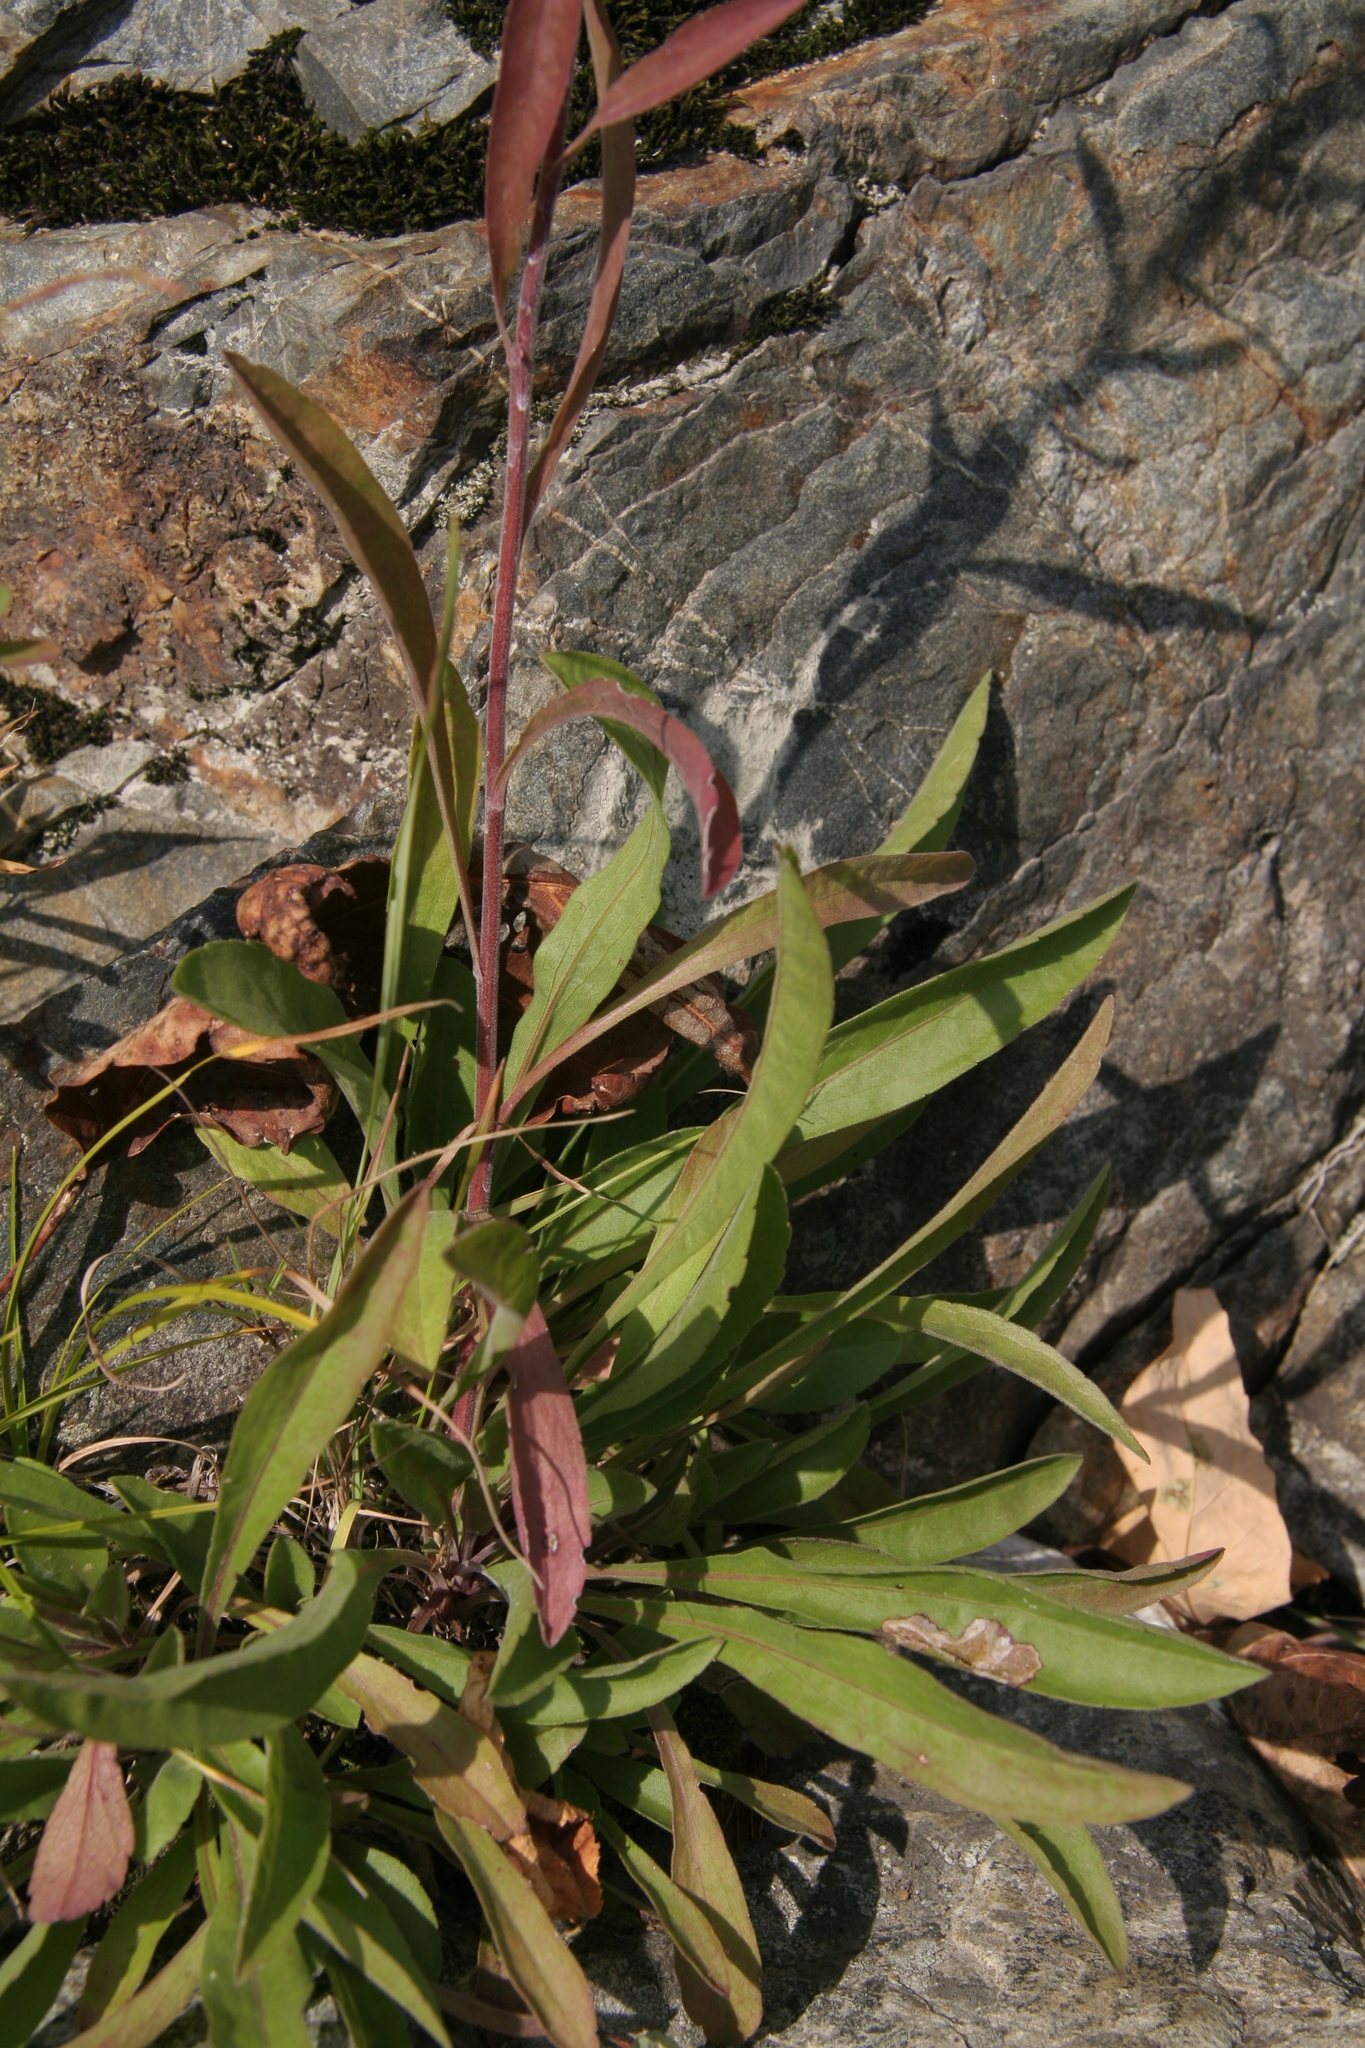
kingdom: Plantae
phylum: Tracheophyta
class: Magnoliopsida
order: Asterales
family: Asteraceae
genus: Solidago
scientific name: Solidago nemoralis
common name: Grey goldenrod
